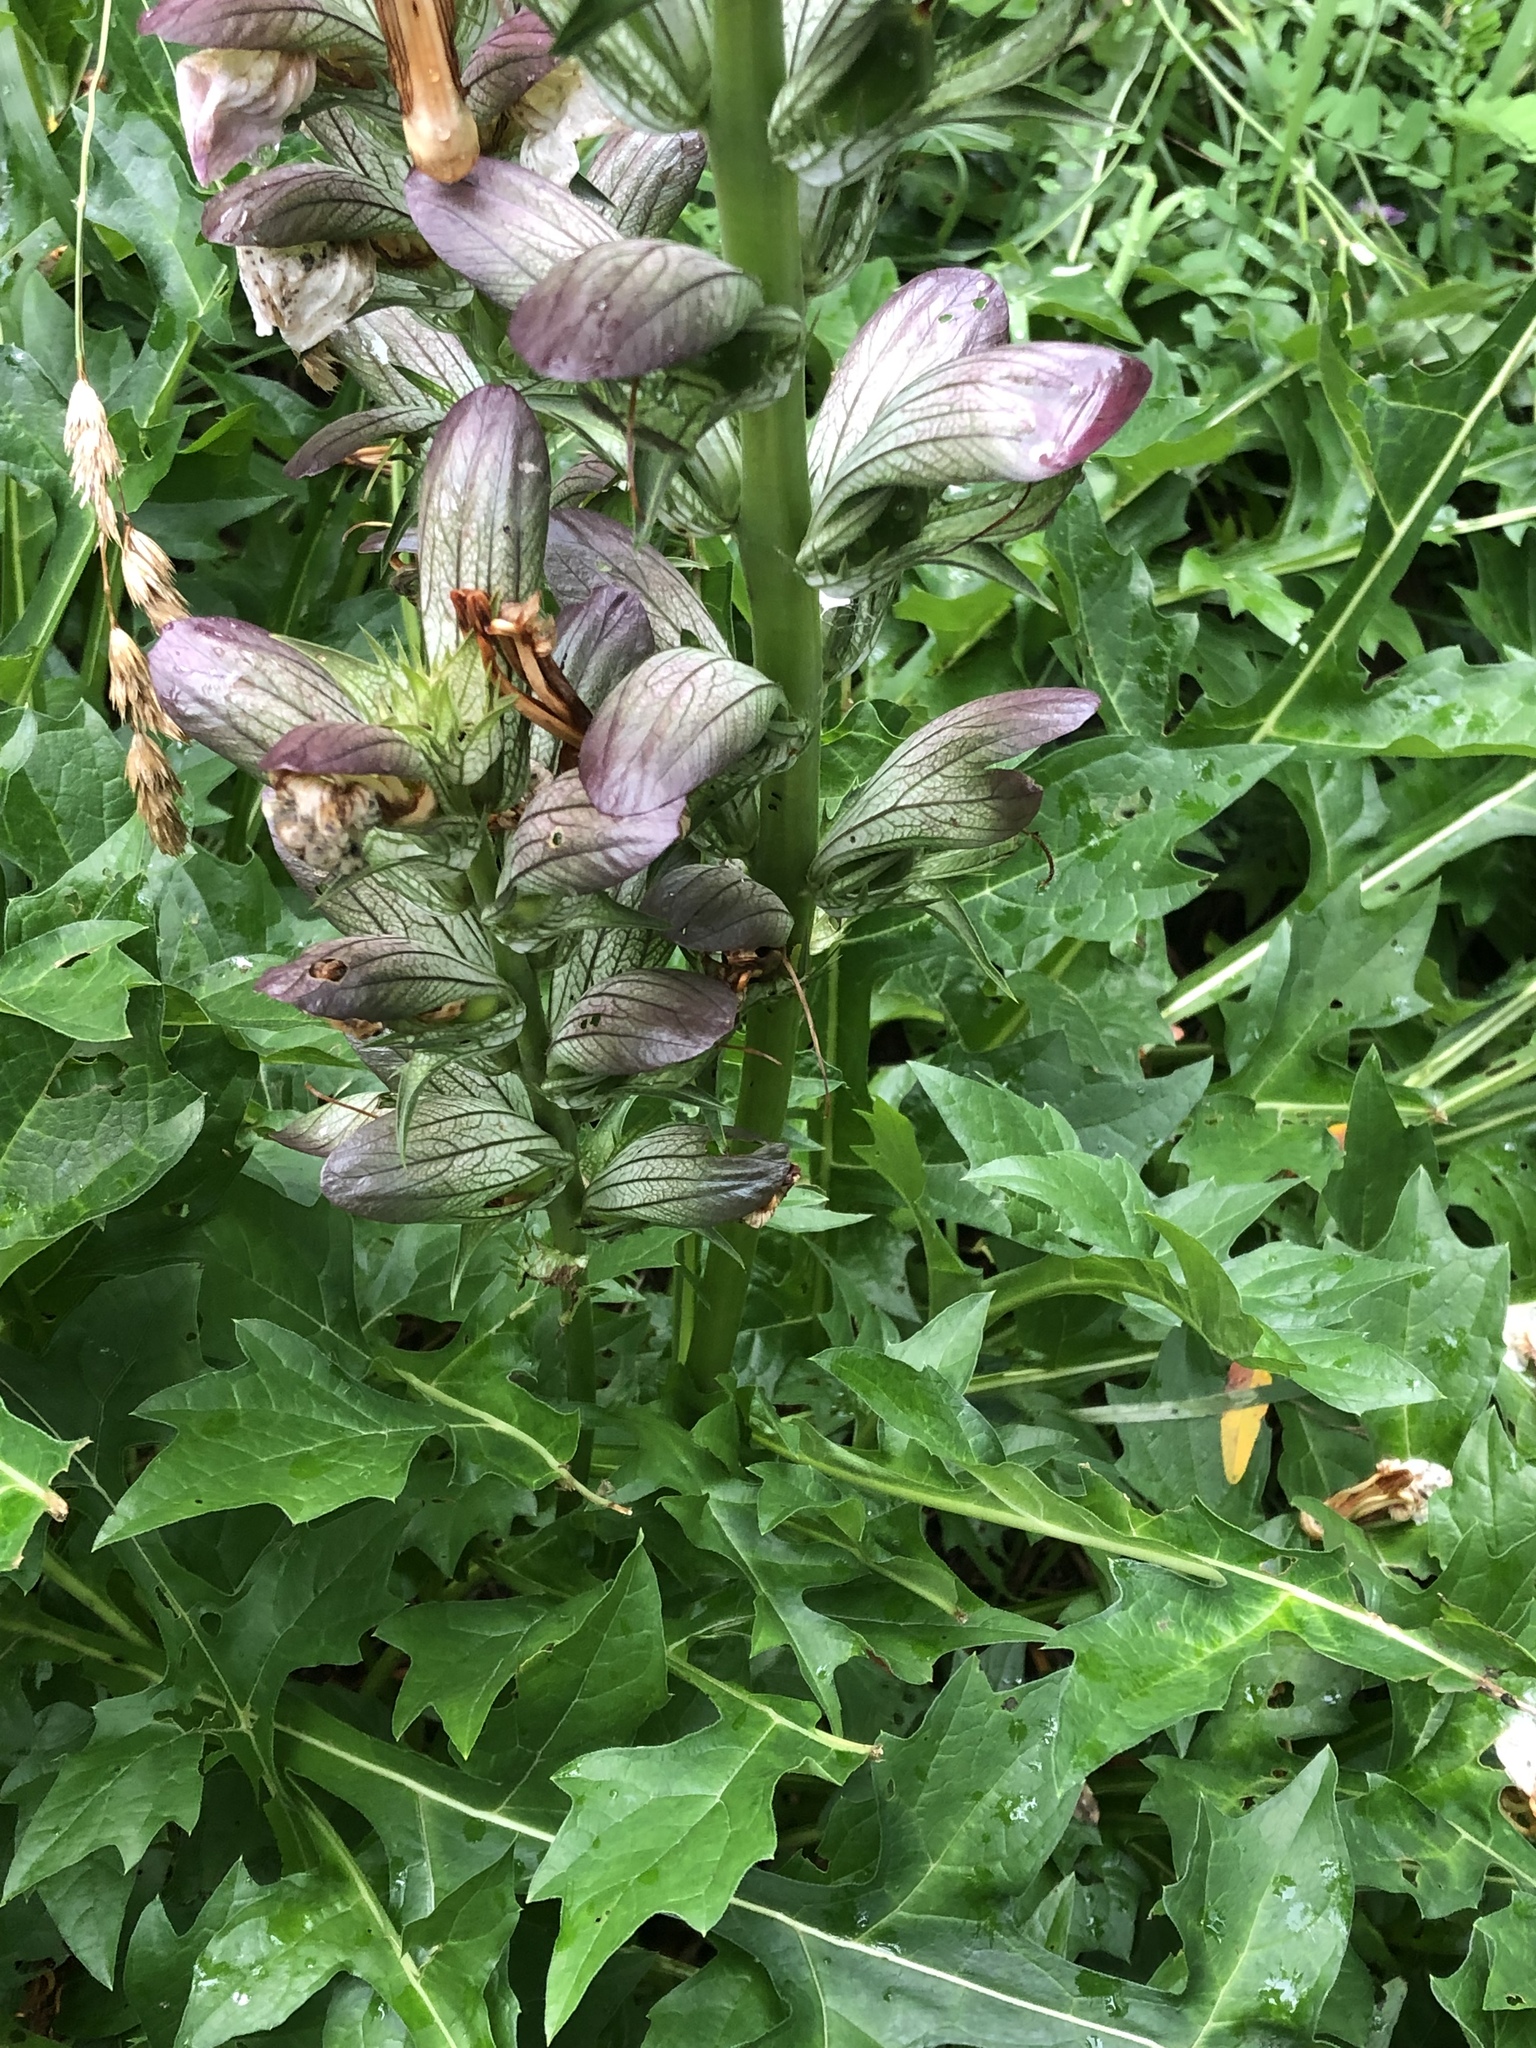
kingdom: Plantae
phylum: Tracheophyta
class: Magnoliopsida
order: Lamiales
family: Acanthaceae
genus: Acanthus
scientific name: Acanthus mollis
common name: Bear's-breech
